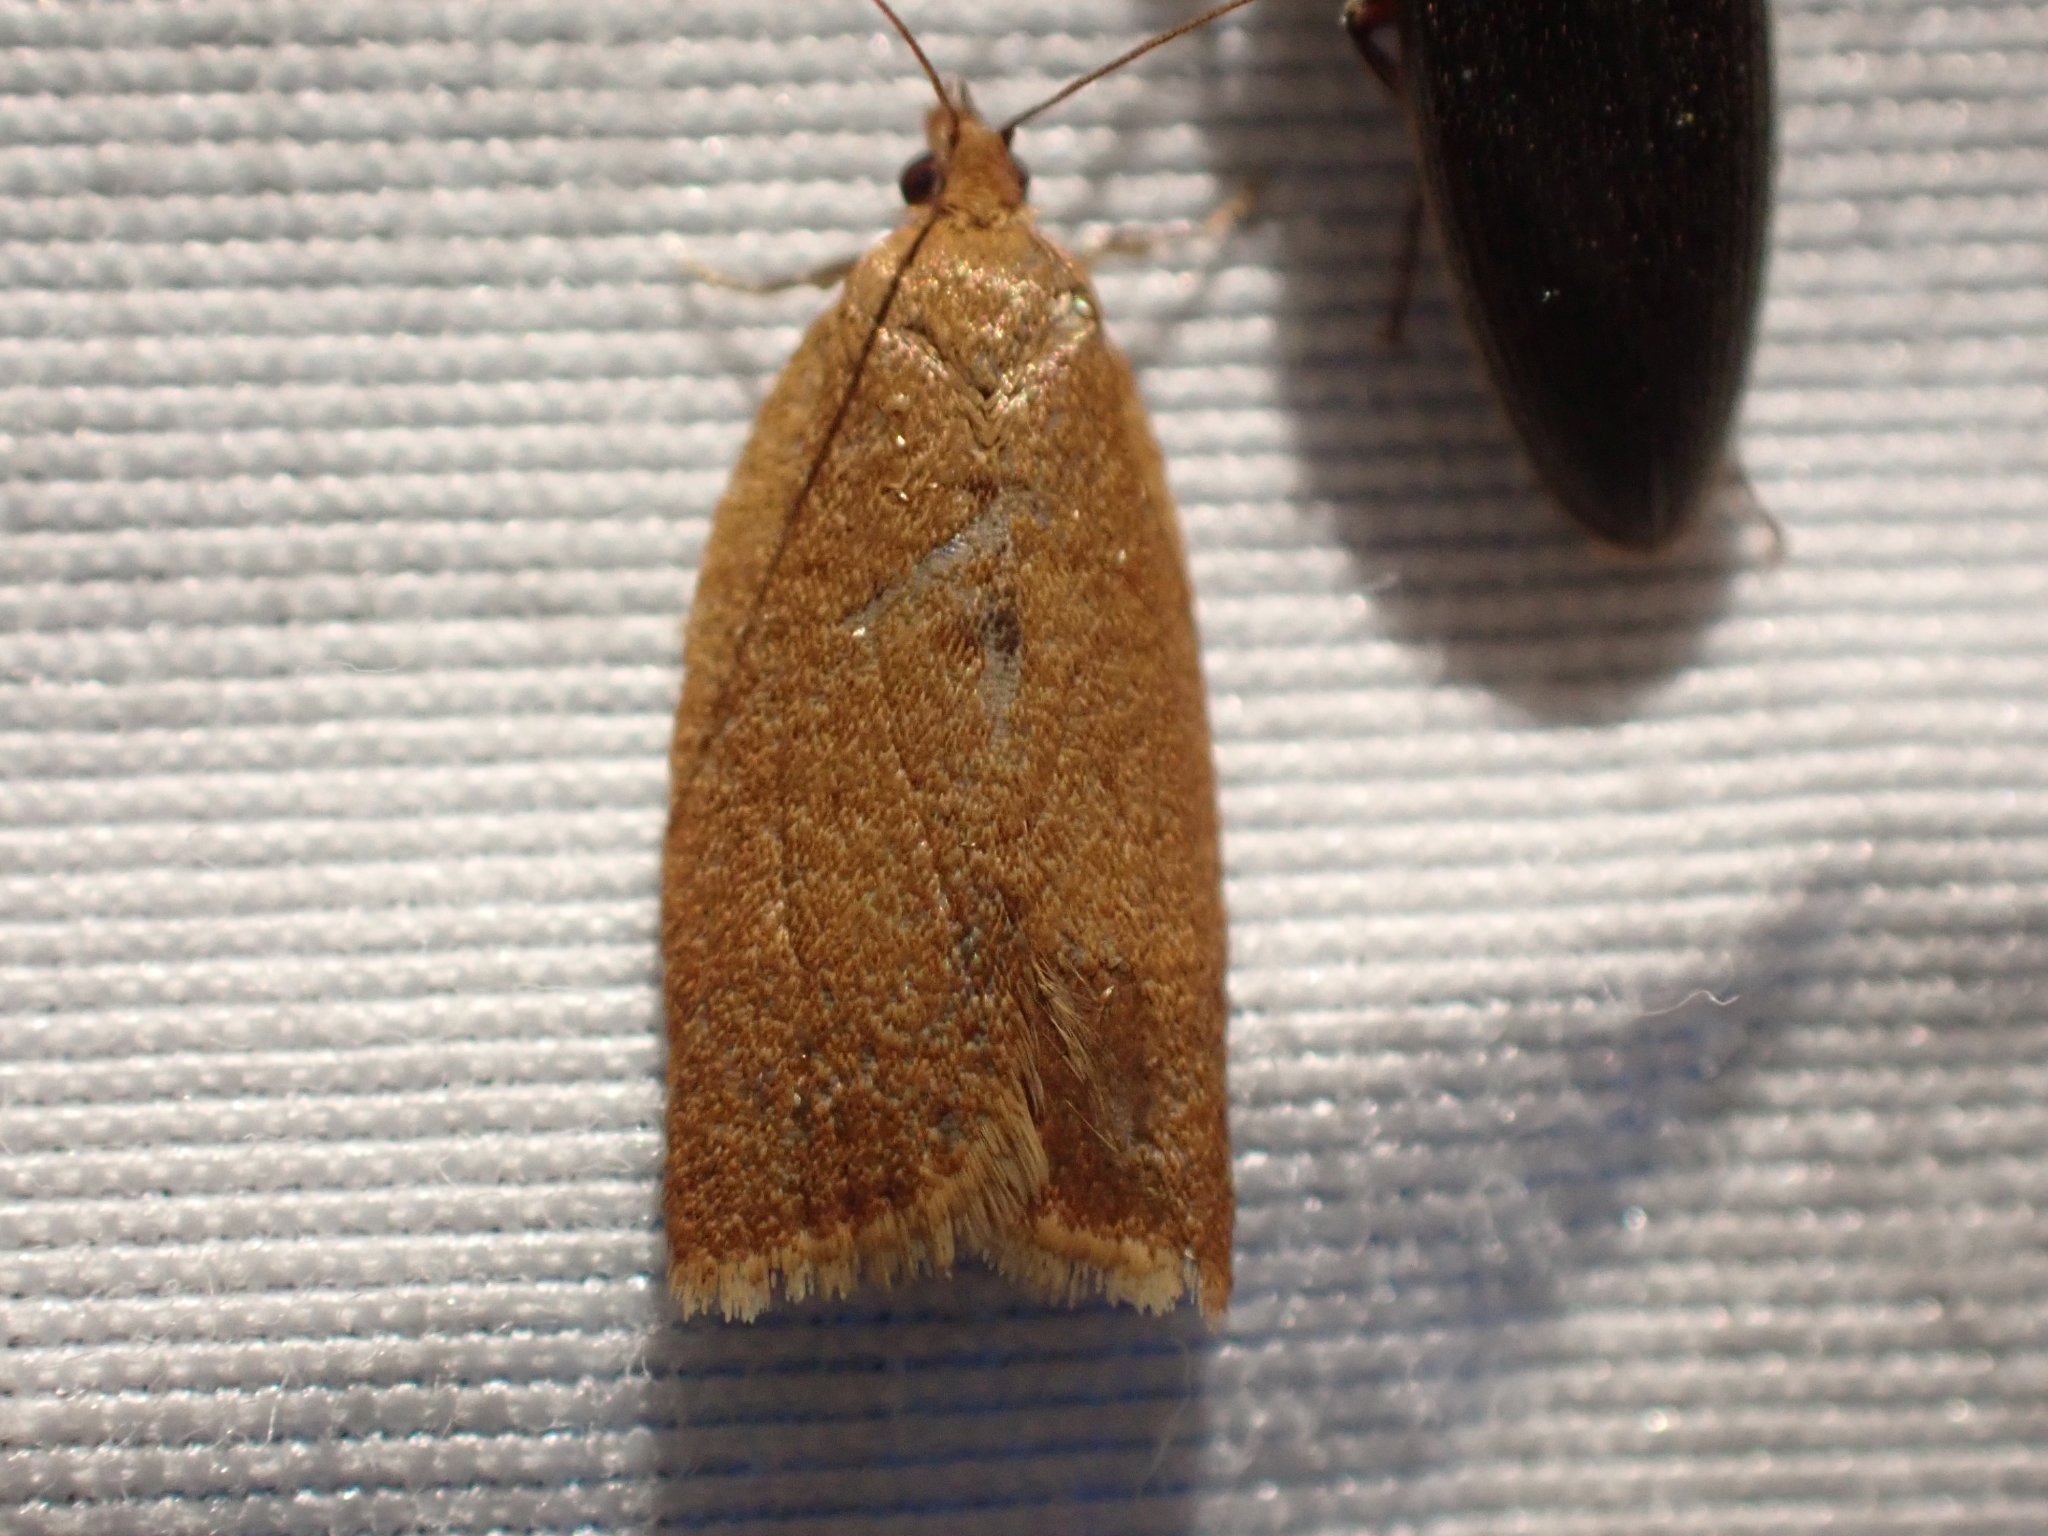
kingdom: Animalia
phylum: Arthropoda
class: Insecta
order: Lepidoptera
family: Tortricidae
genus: Clepsis
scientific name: Clepsis consimilana
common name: Privet tortrix
